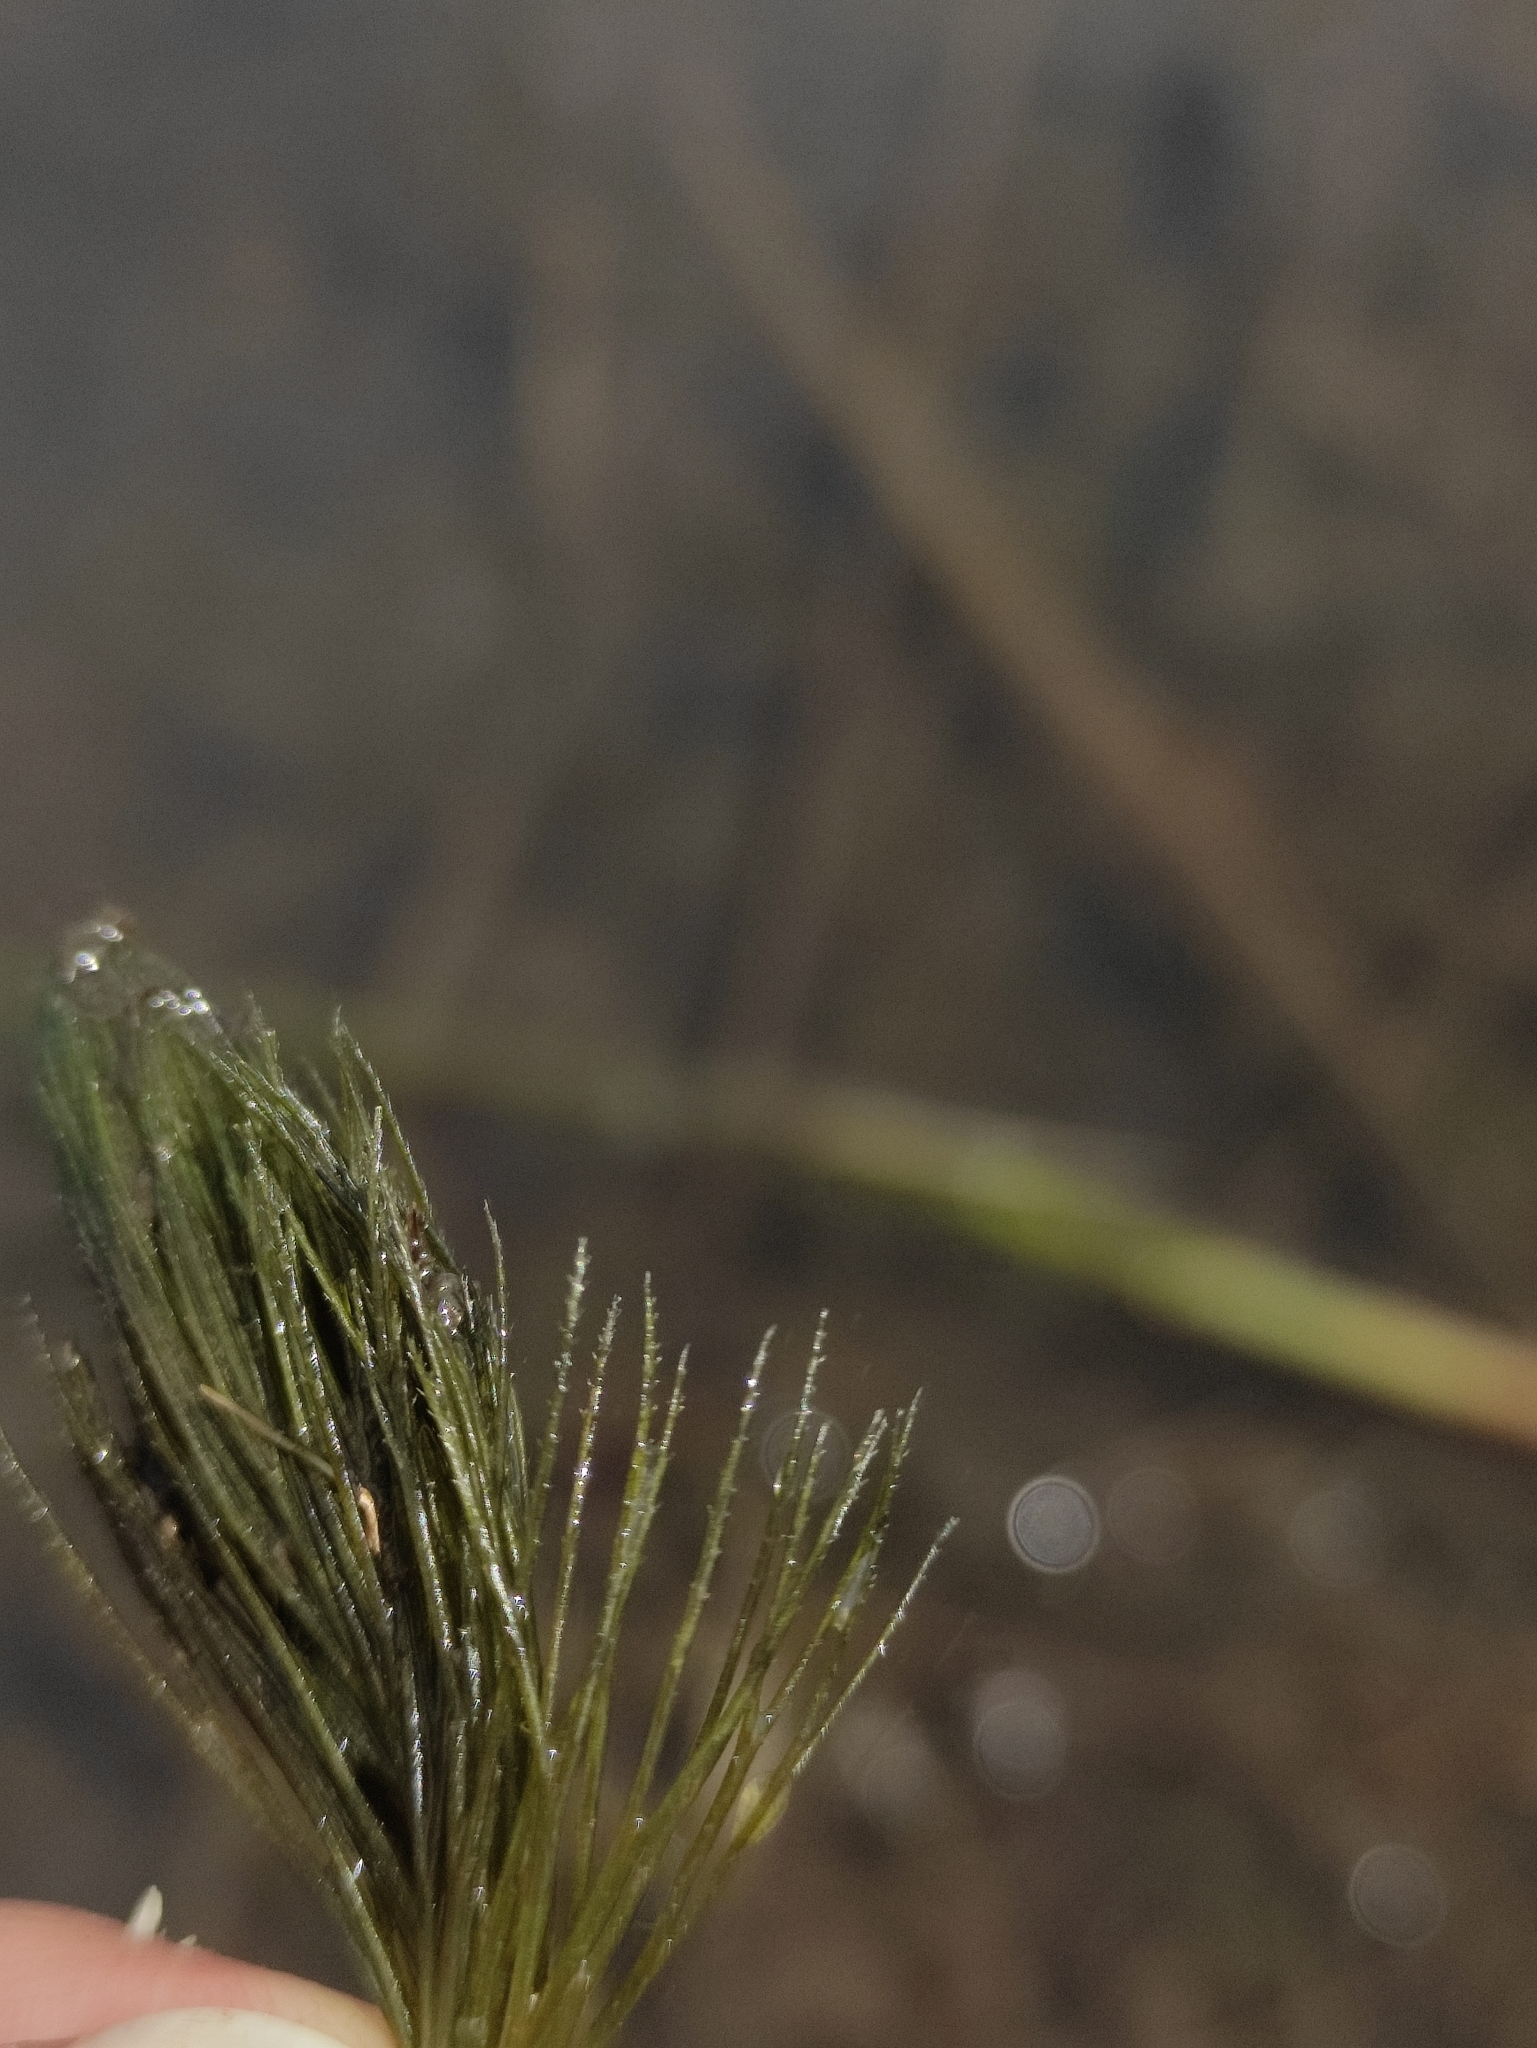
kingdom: Plantae
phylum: Tracheophyta
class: Magnoliopsida
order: Ceratophyllales
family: Ceratophyllaceae
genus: Ceratophyllum
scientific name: Ceratophyllum demersum
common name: Rigid hornwort
